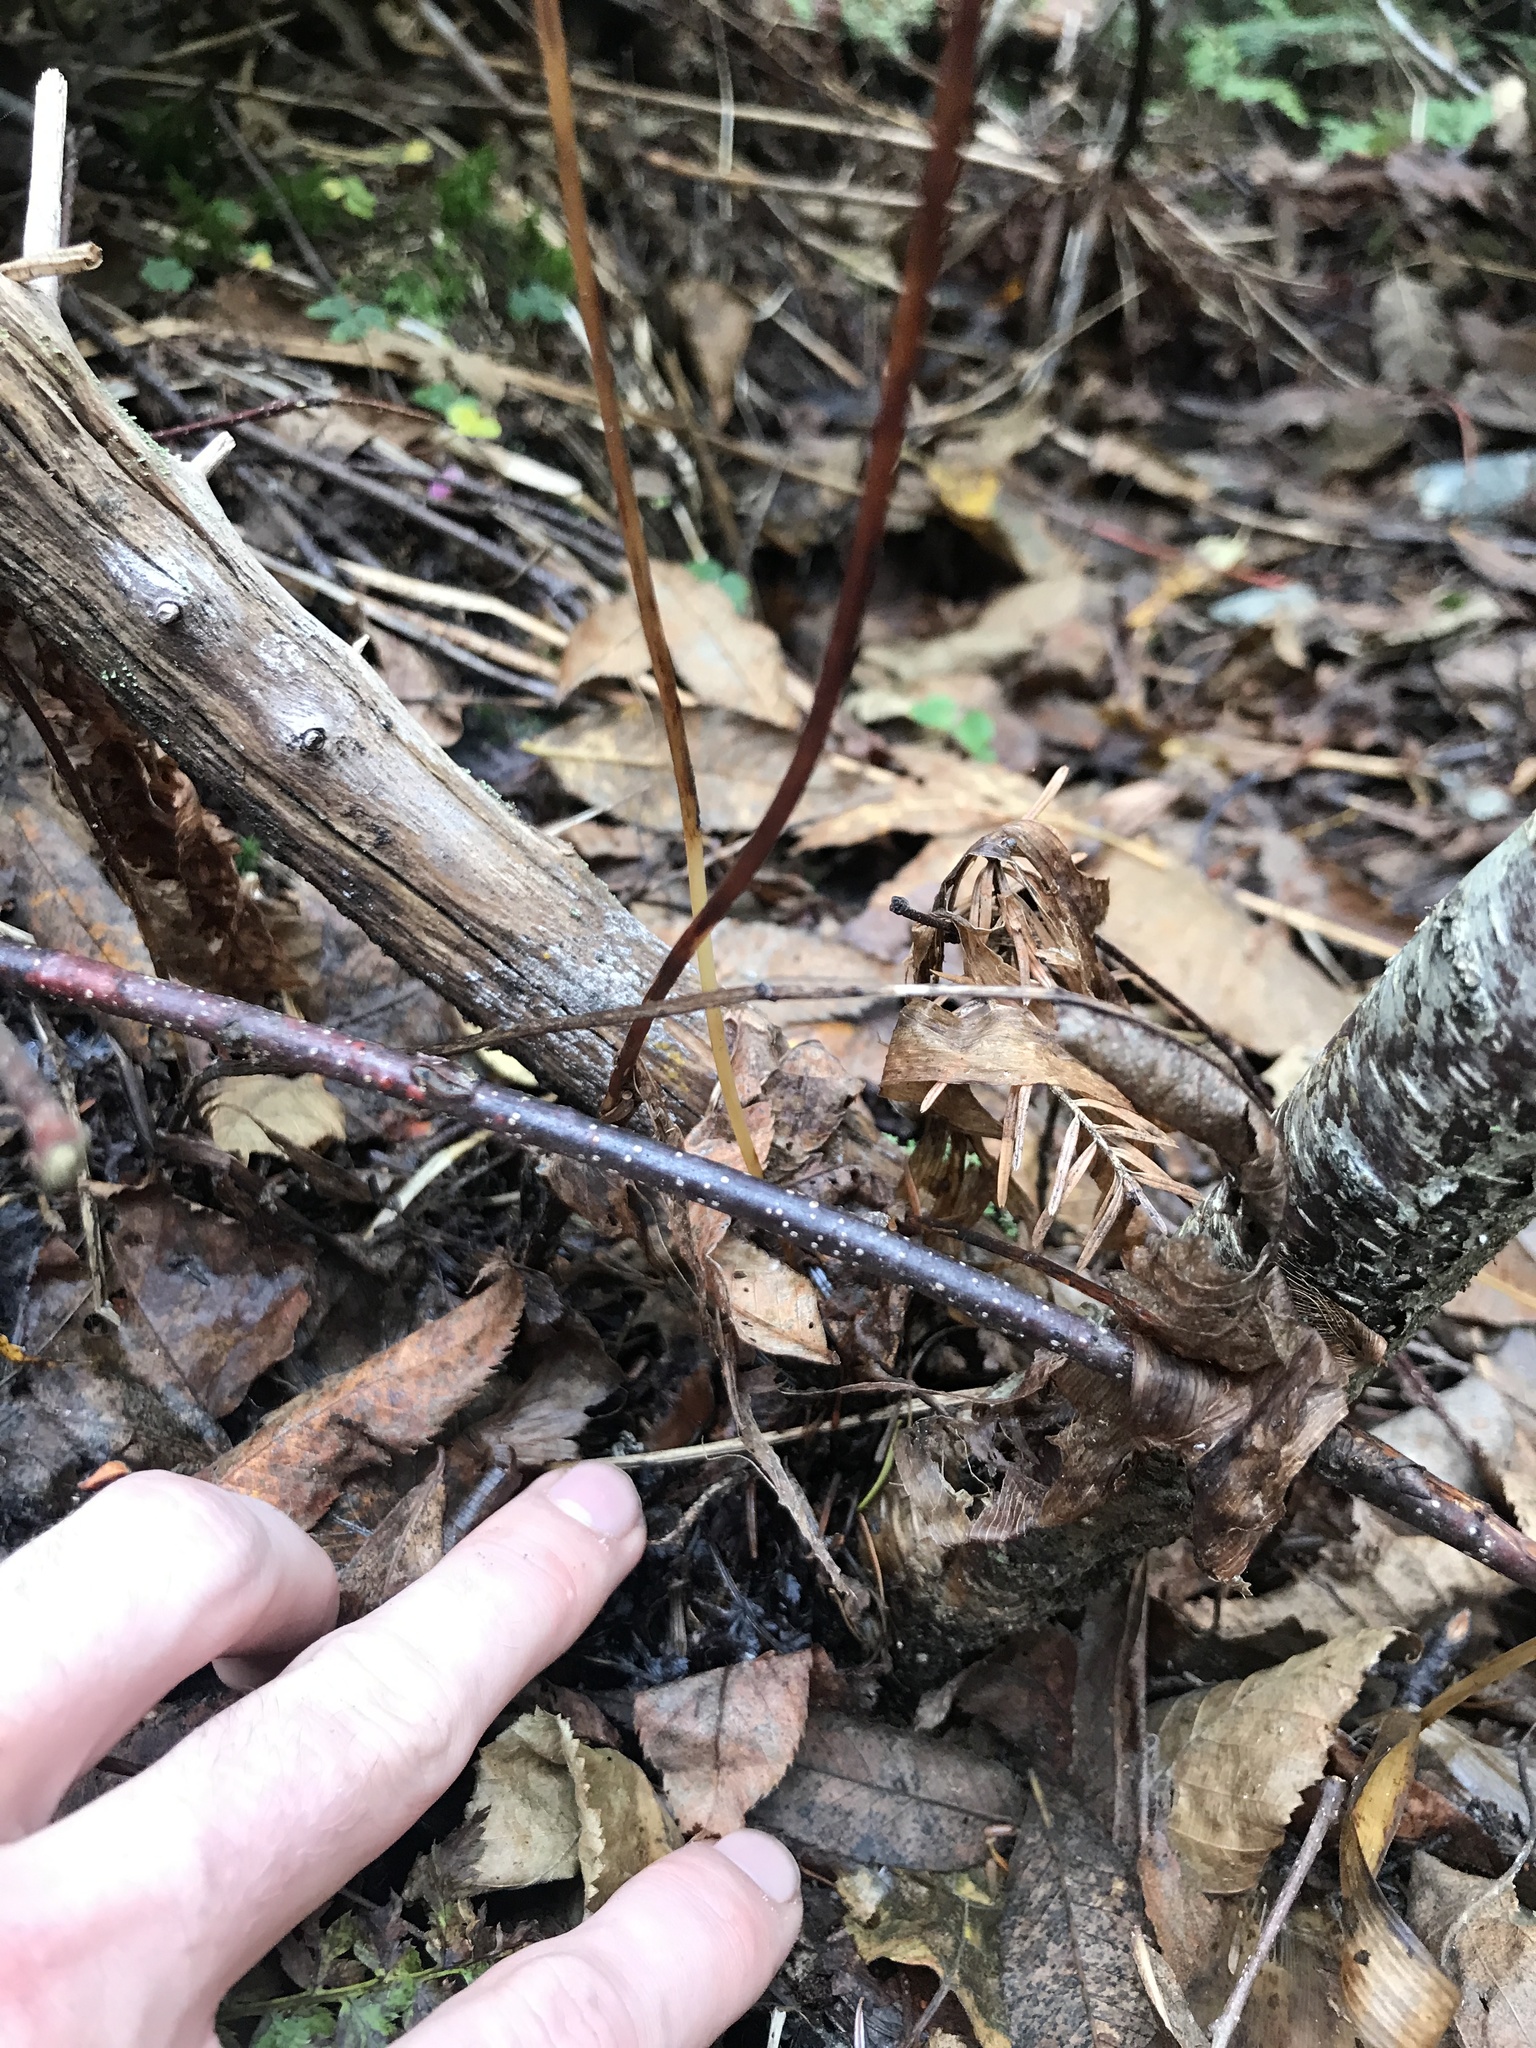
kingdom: Plantae
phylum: Tracheophyta
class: Liliopsida
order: Liliales
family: Liliaceae
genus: Clintonia
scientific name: Clintonia borealis
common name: Yellow clintonia
